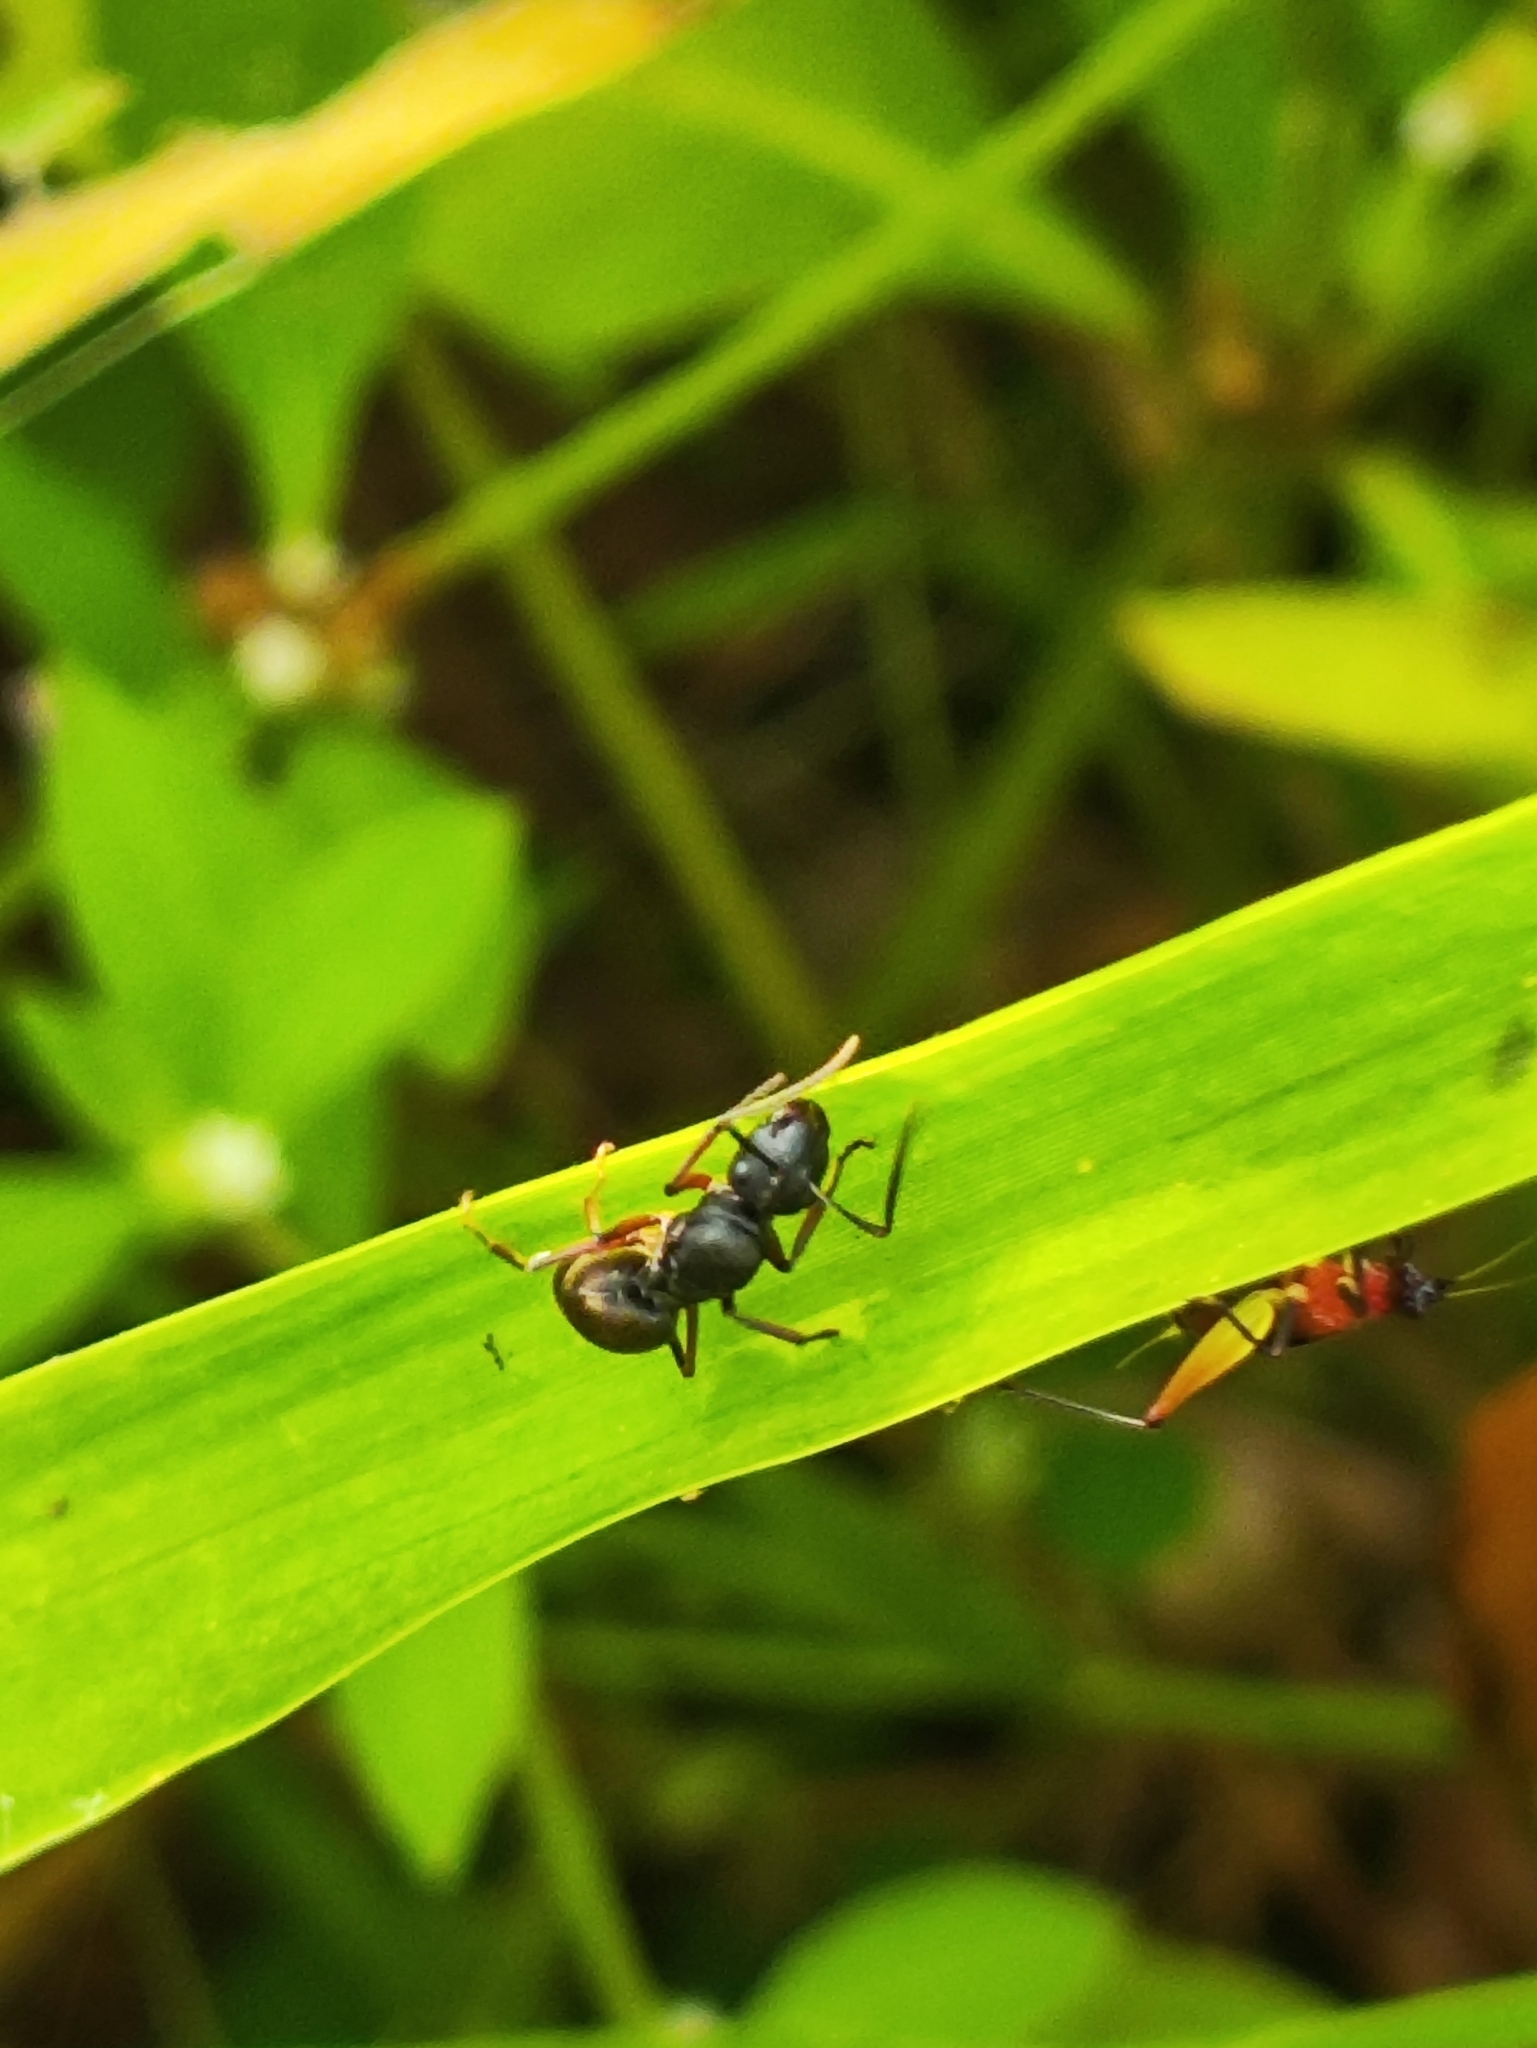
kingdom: Animalia
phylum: Arthropoda
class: Insecta
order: Hymenoptera
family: Formicidae
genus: Polyrhachis
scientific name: Polyrhachis exercita
